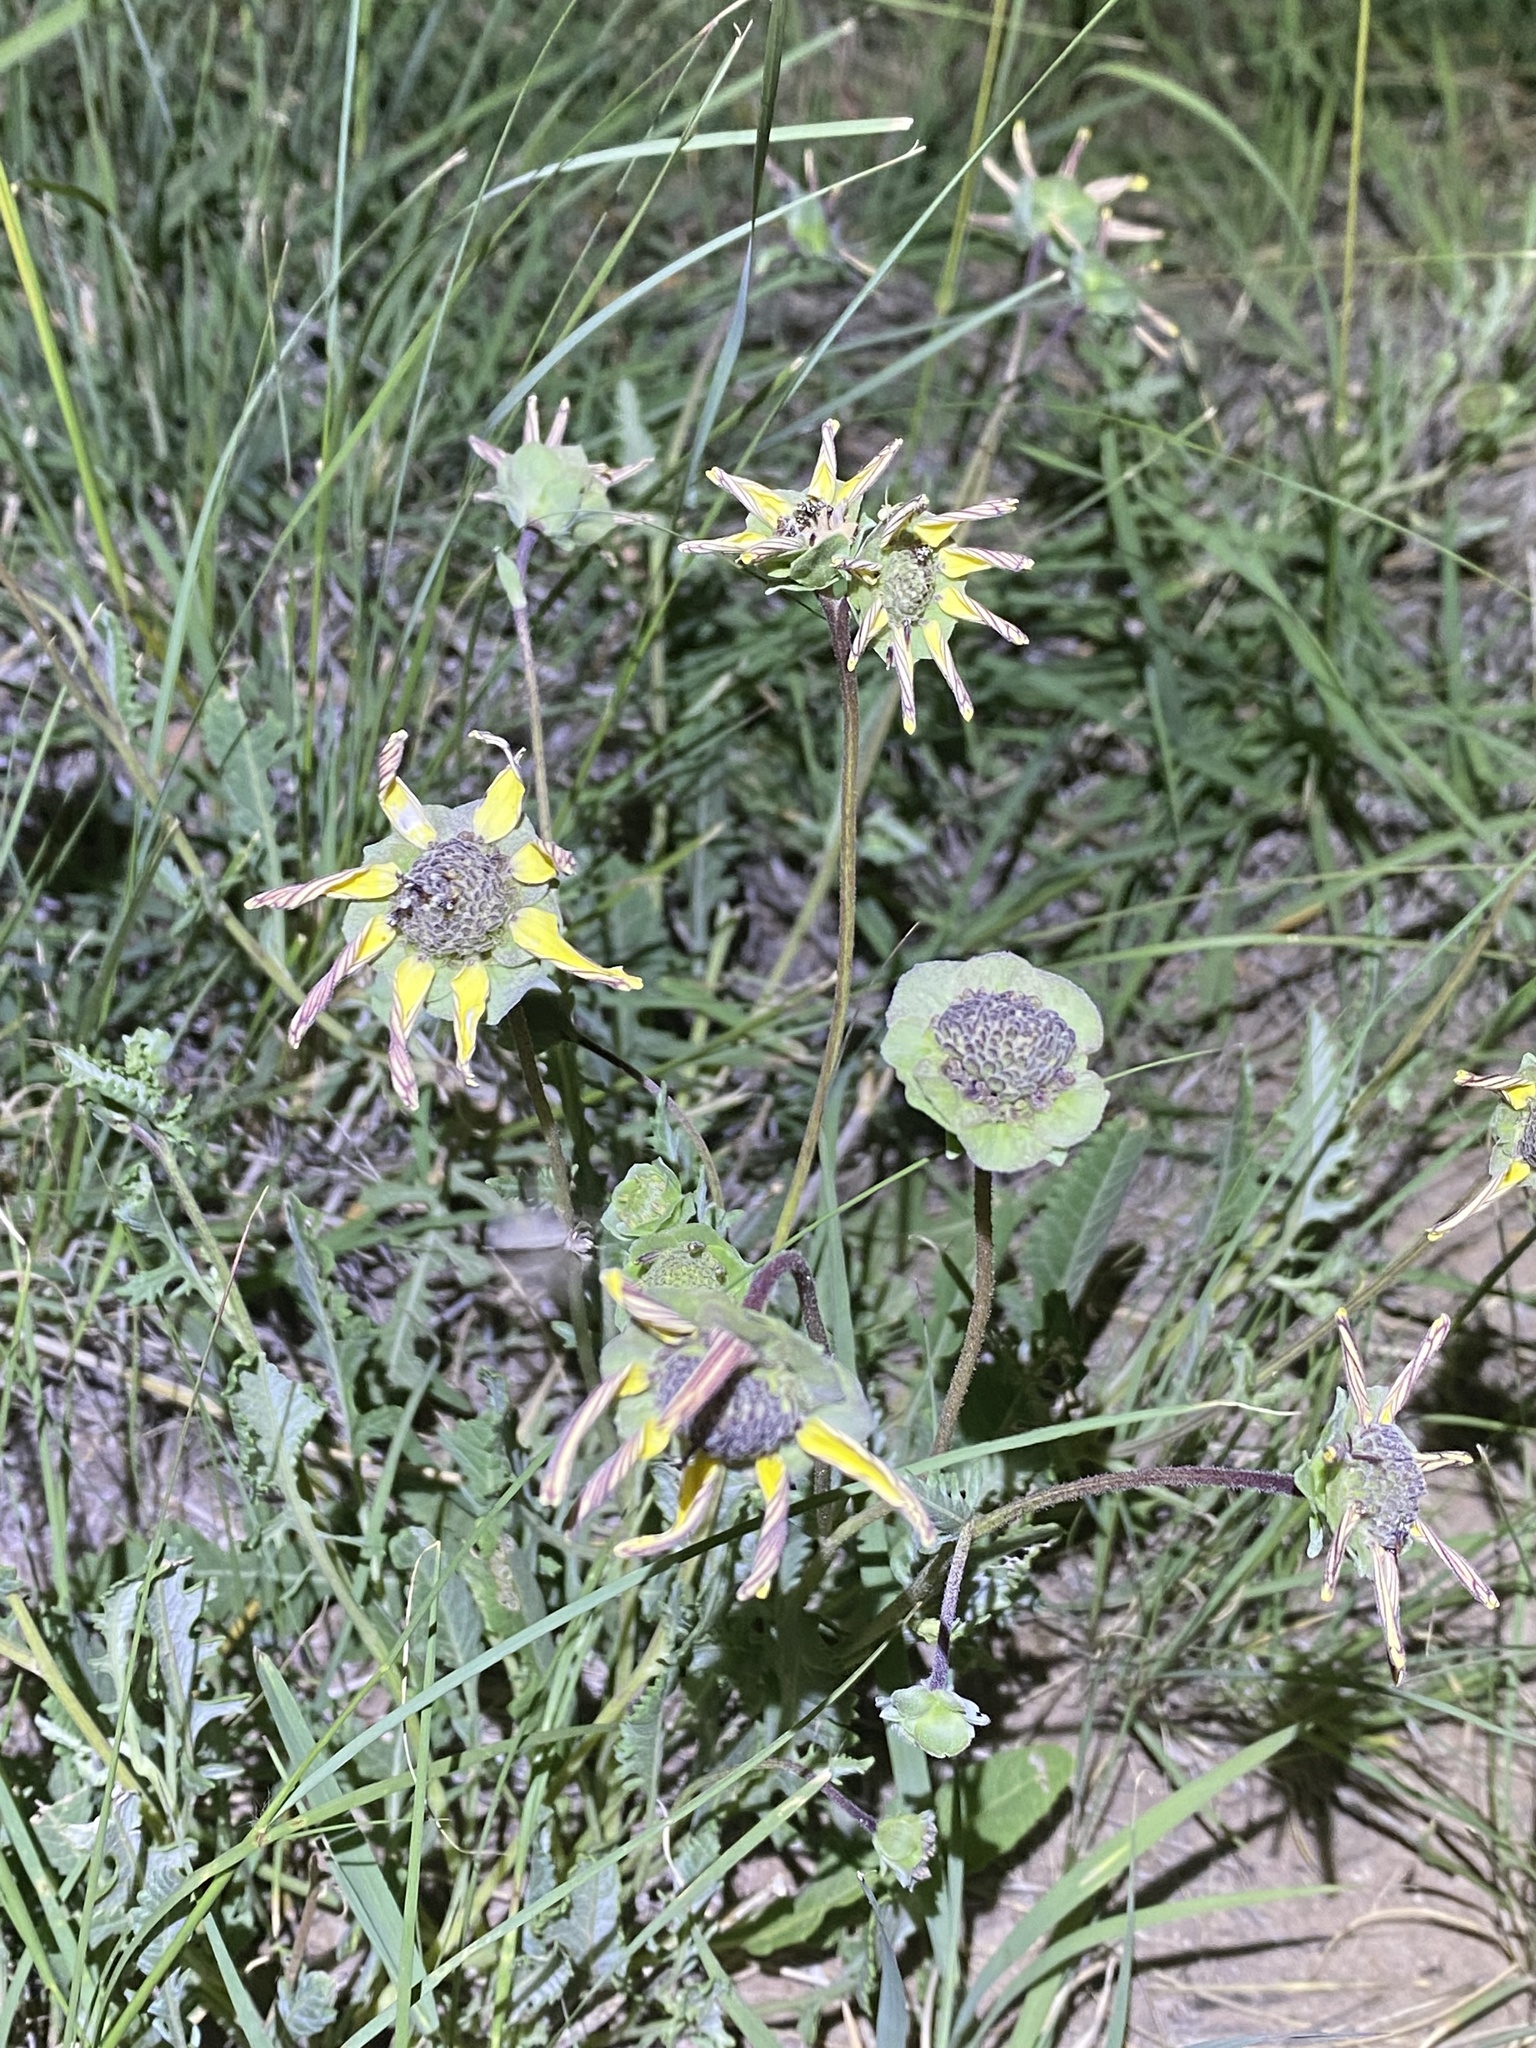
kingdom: Plantae
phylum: Tracheophyta
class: Magnoliopsida
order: Asterales
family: Asteraceae
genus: Berlandiera
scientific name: Berlandiera lyrata
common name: Chocolate-flower
